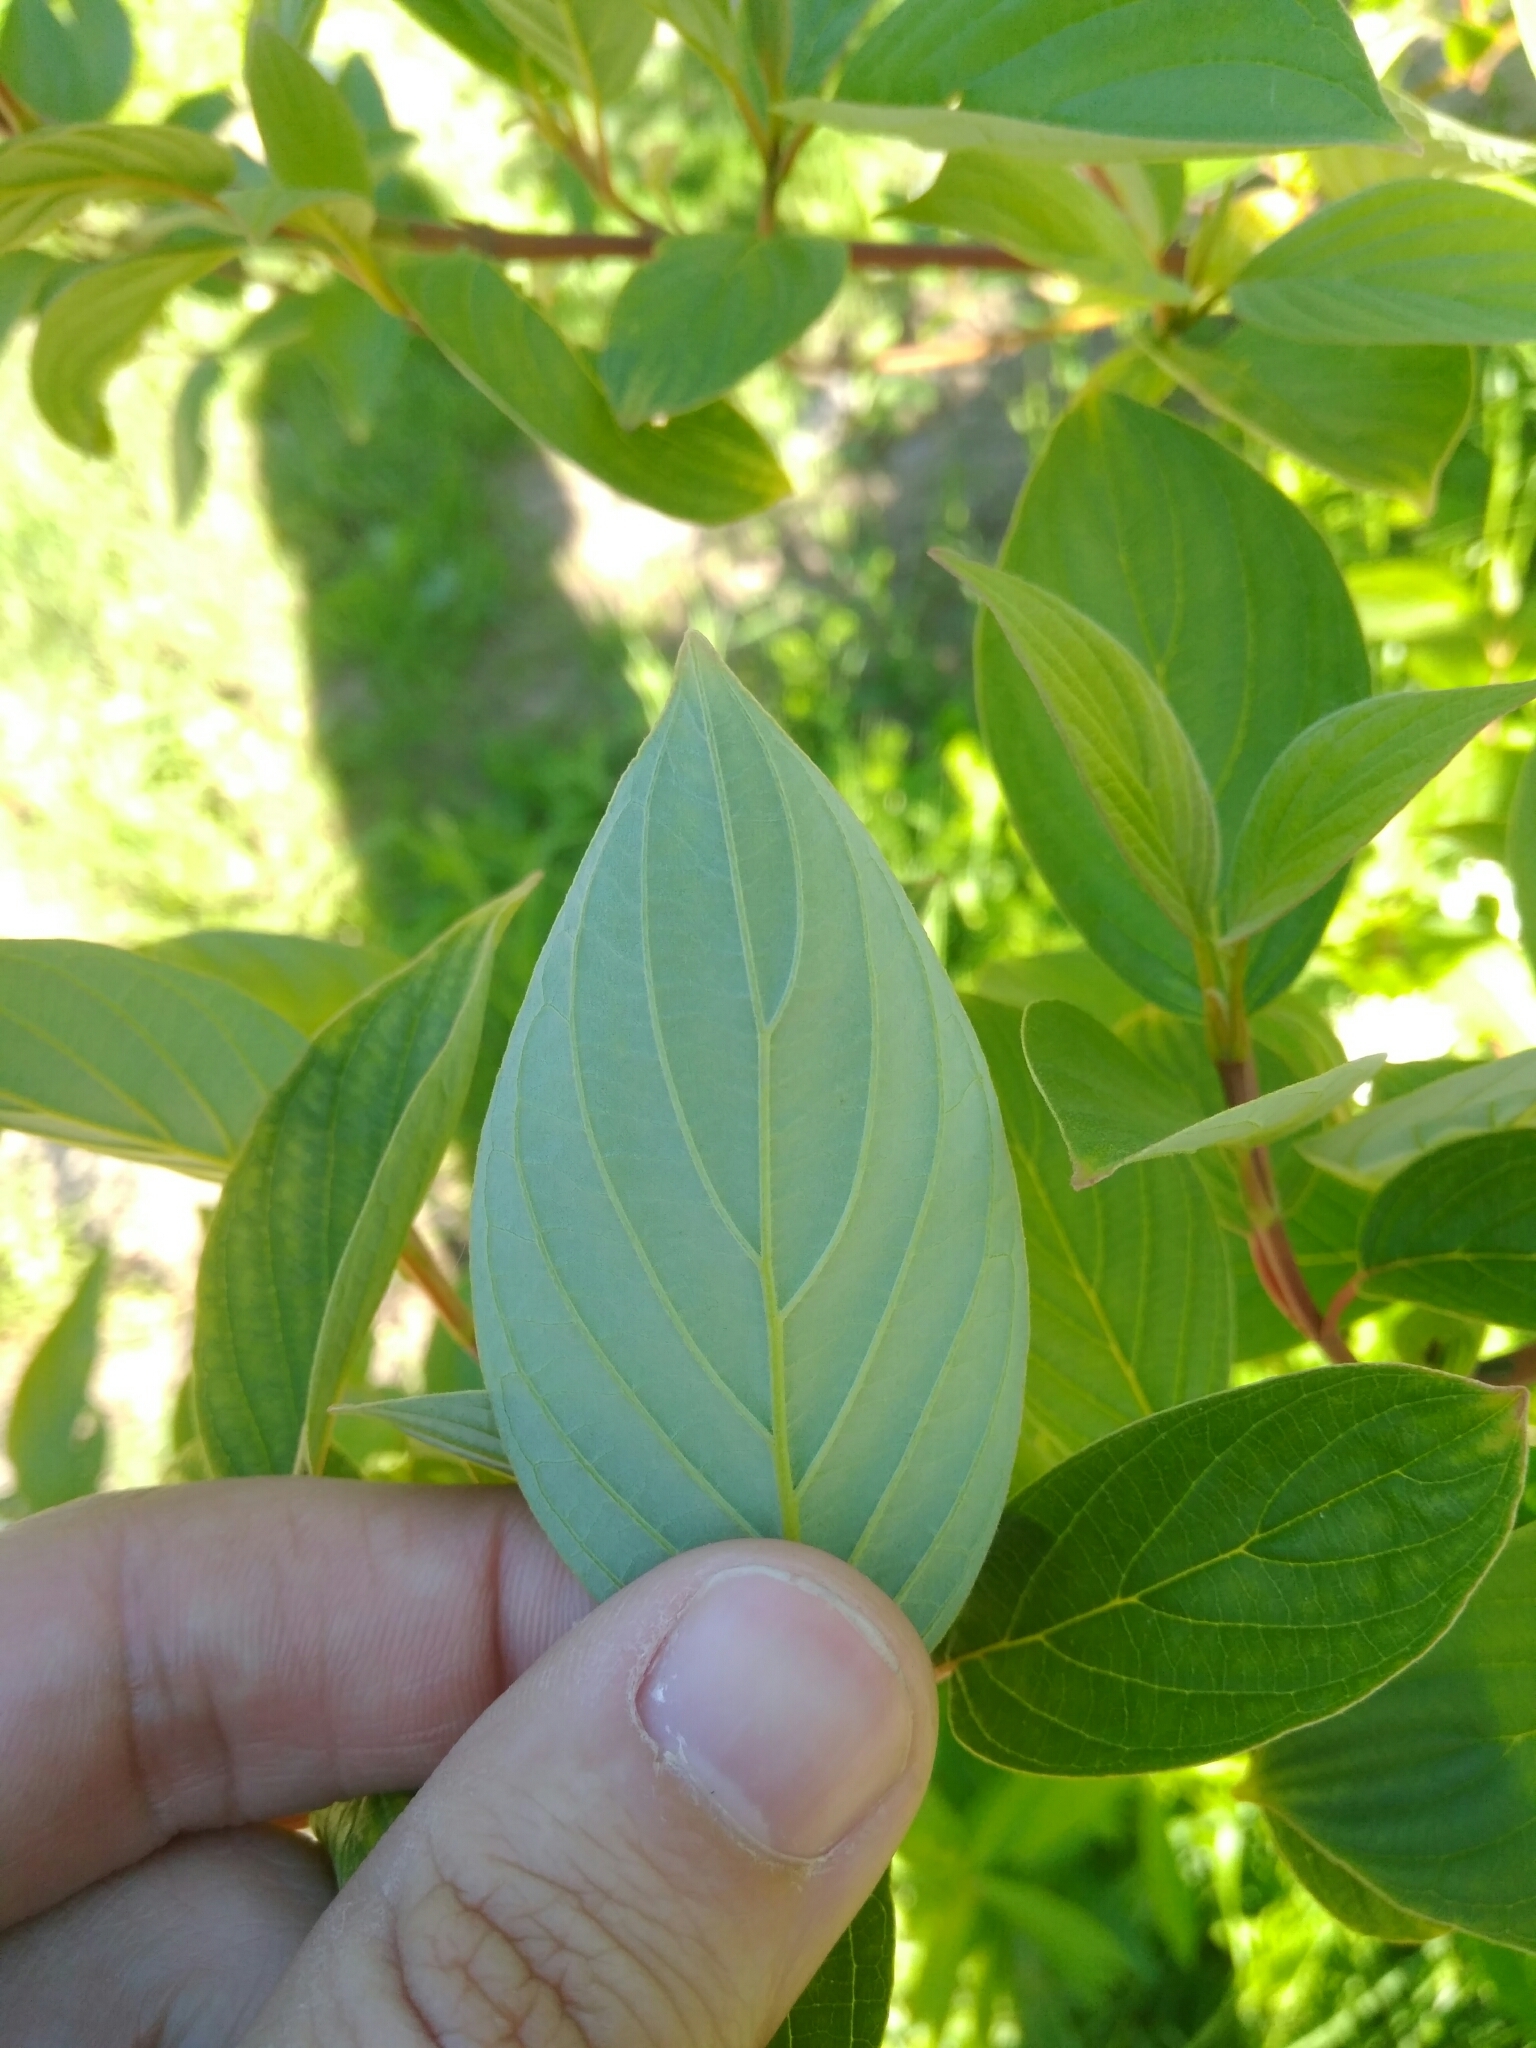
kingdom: Plantae
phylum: Tracheophyta
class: Magnoliopsida
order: Cornales
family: Cornaceae
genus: Cornus
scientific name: Cornus sericea
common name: Red-osier dogwood
